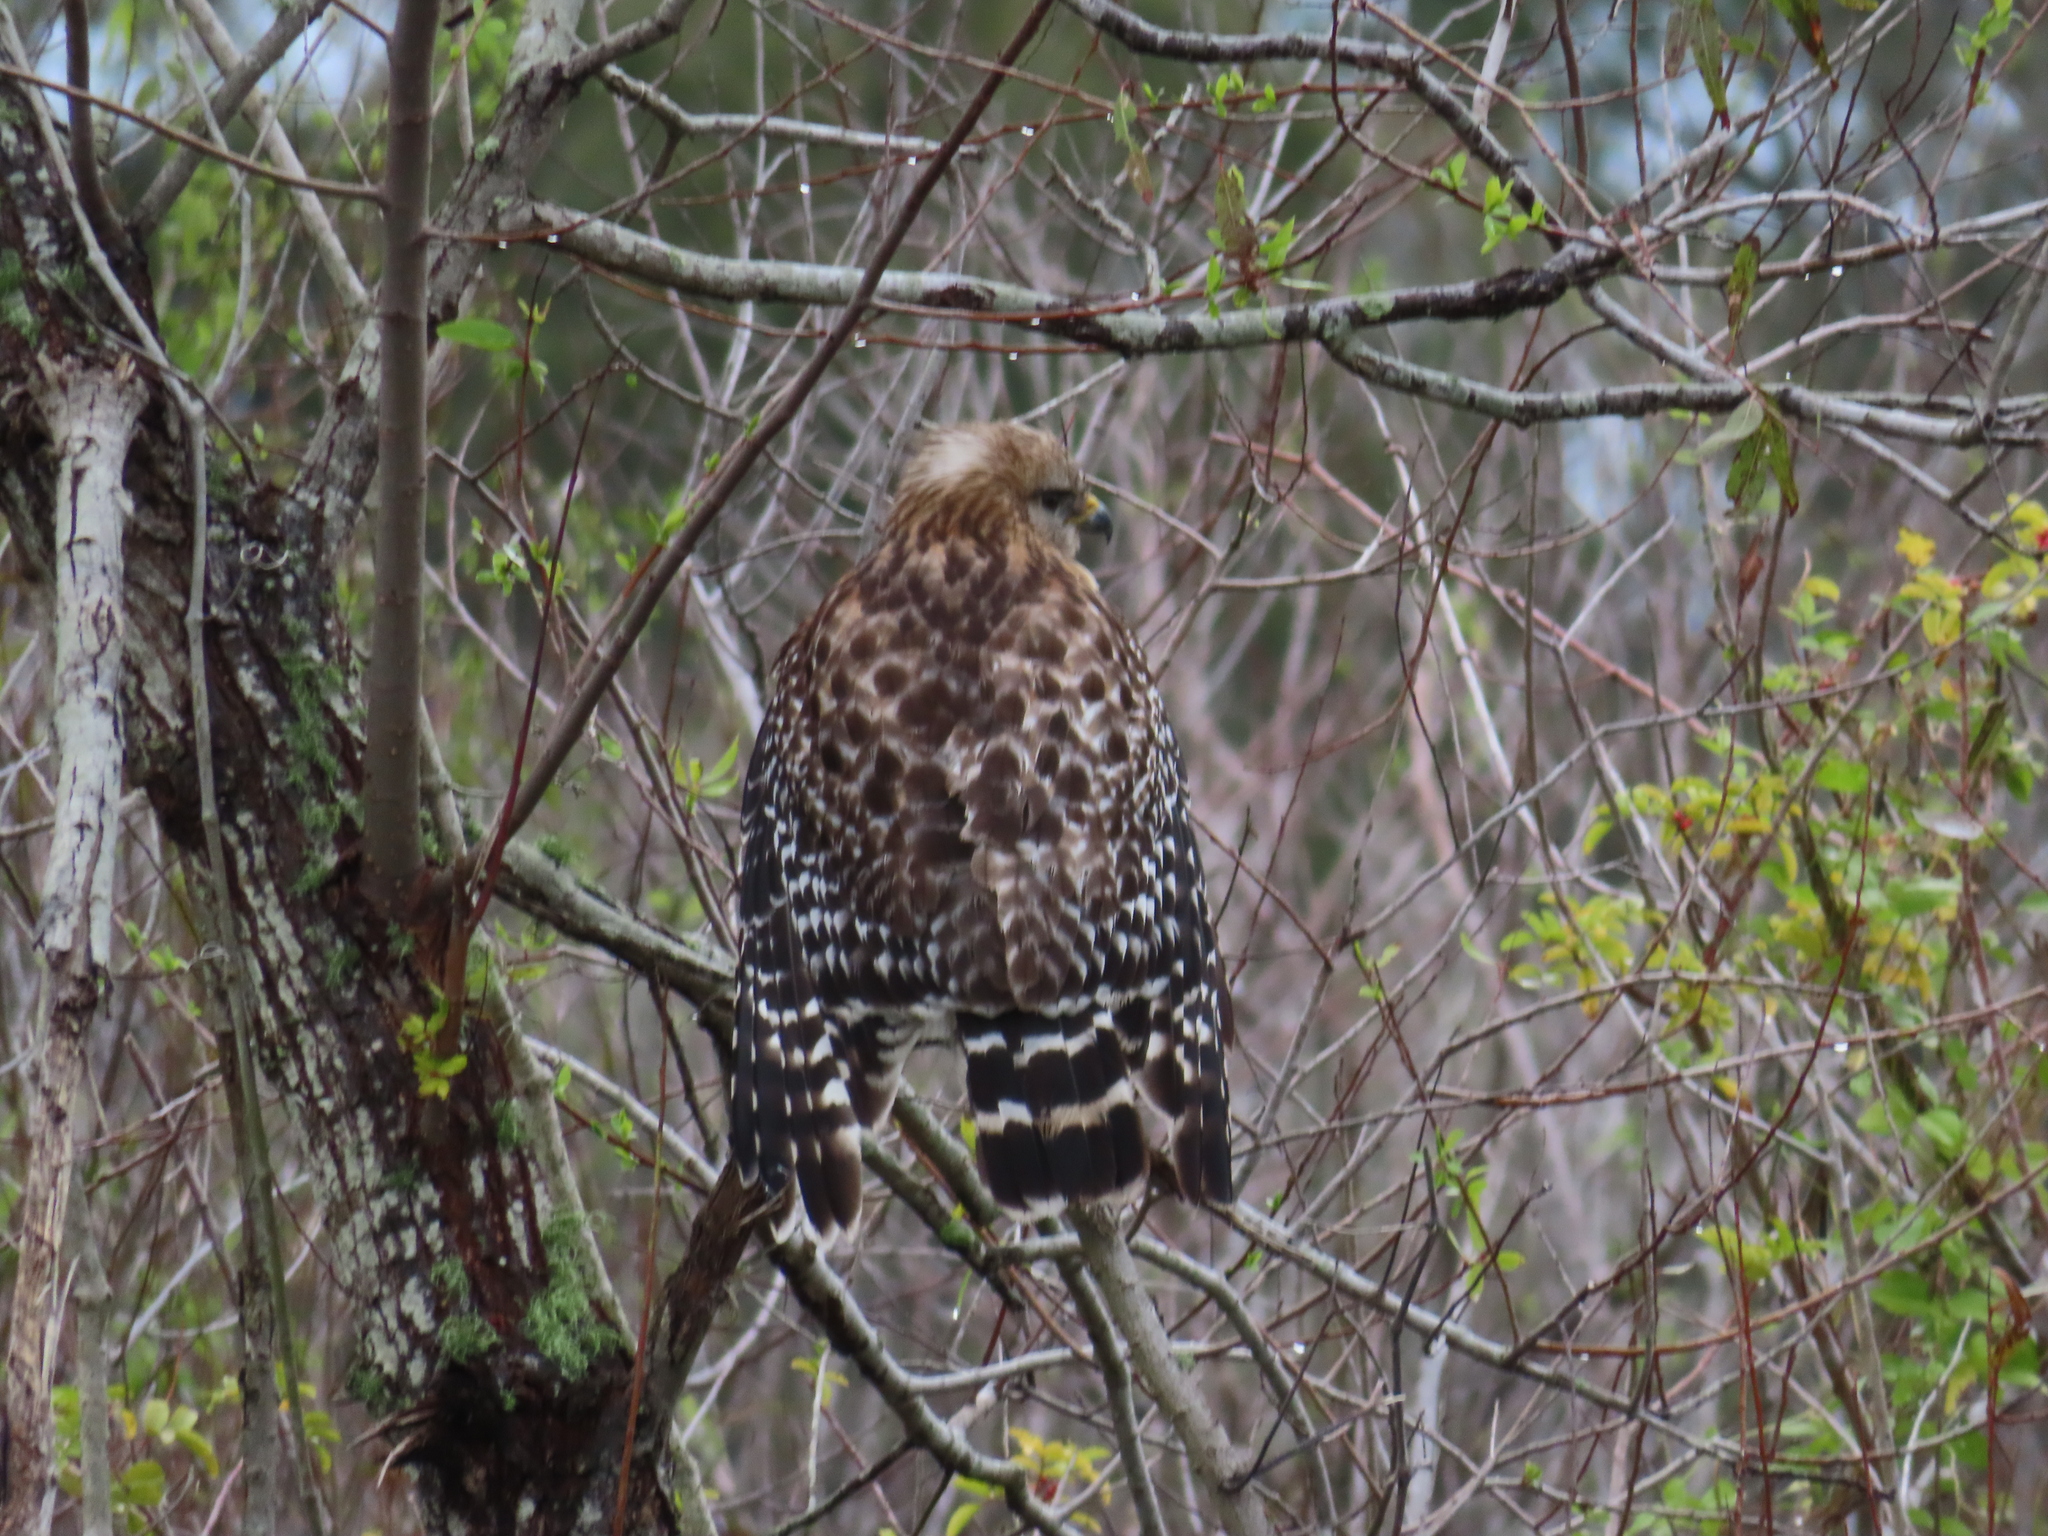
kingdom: Animalia
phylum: Chordata
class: Aves
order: Accipitriformes
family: Accipitridae
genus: Buteo
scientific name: Buteo lineatus
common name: Red-shouldered hawk
